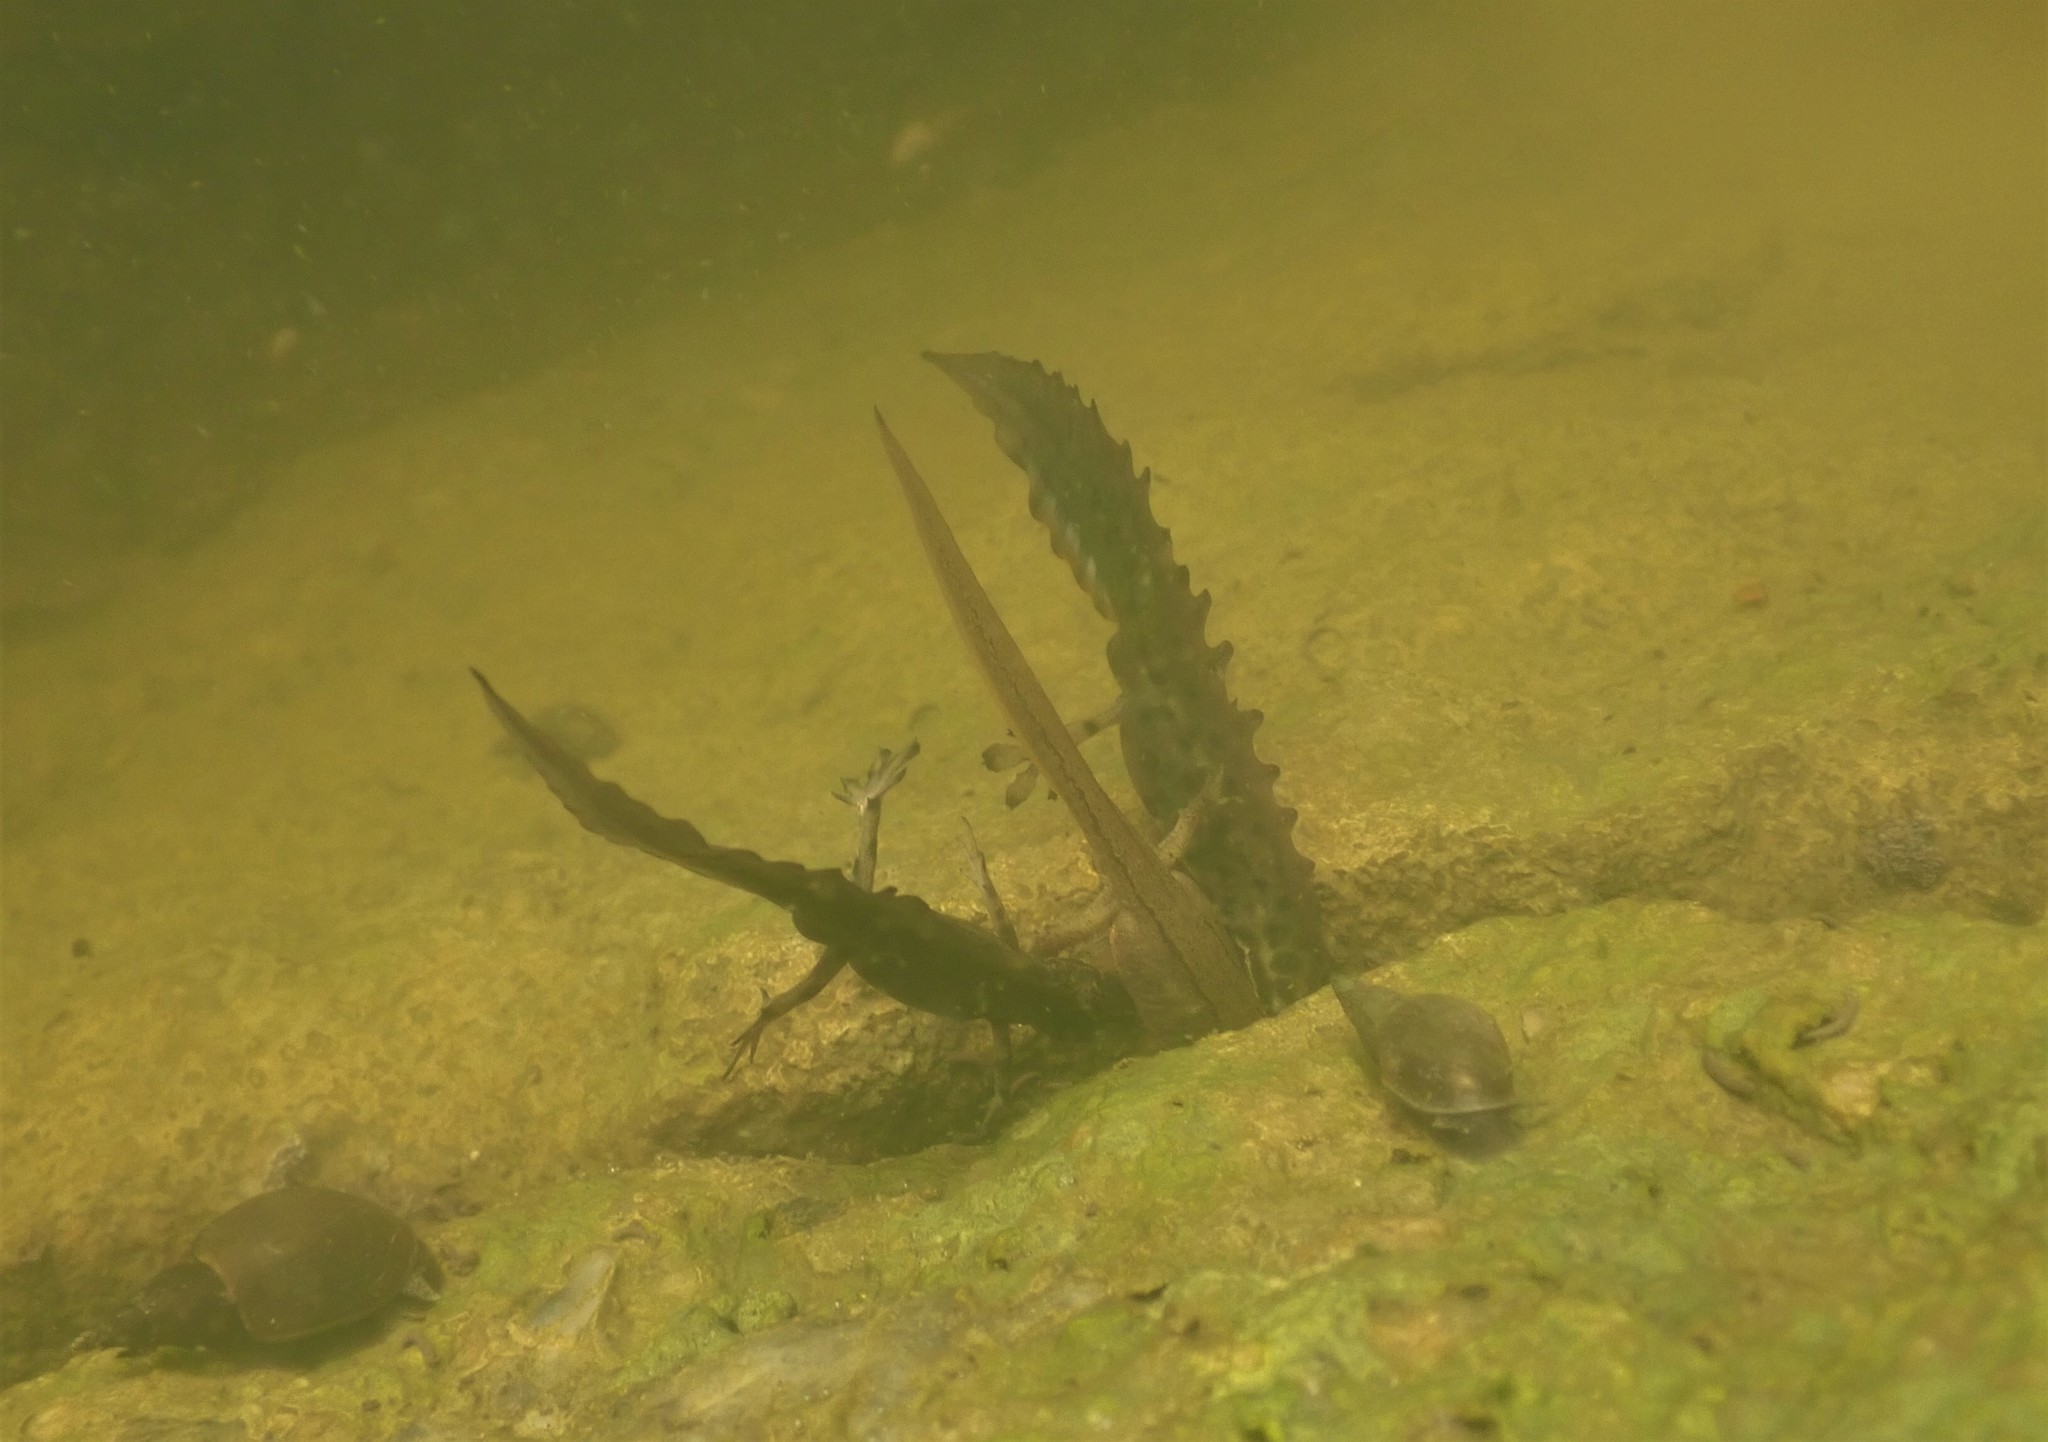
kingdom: Animalia
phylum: Chordata
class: Amphibia
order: Caudata
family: Salamandridae
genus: Lissotriton
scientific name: Lissotriton vulgaris
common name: Smooth newt
